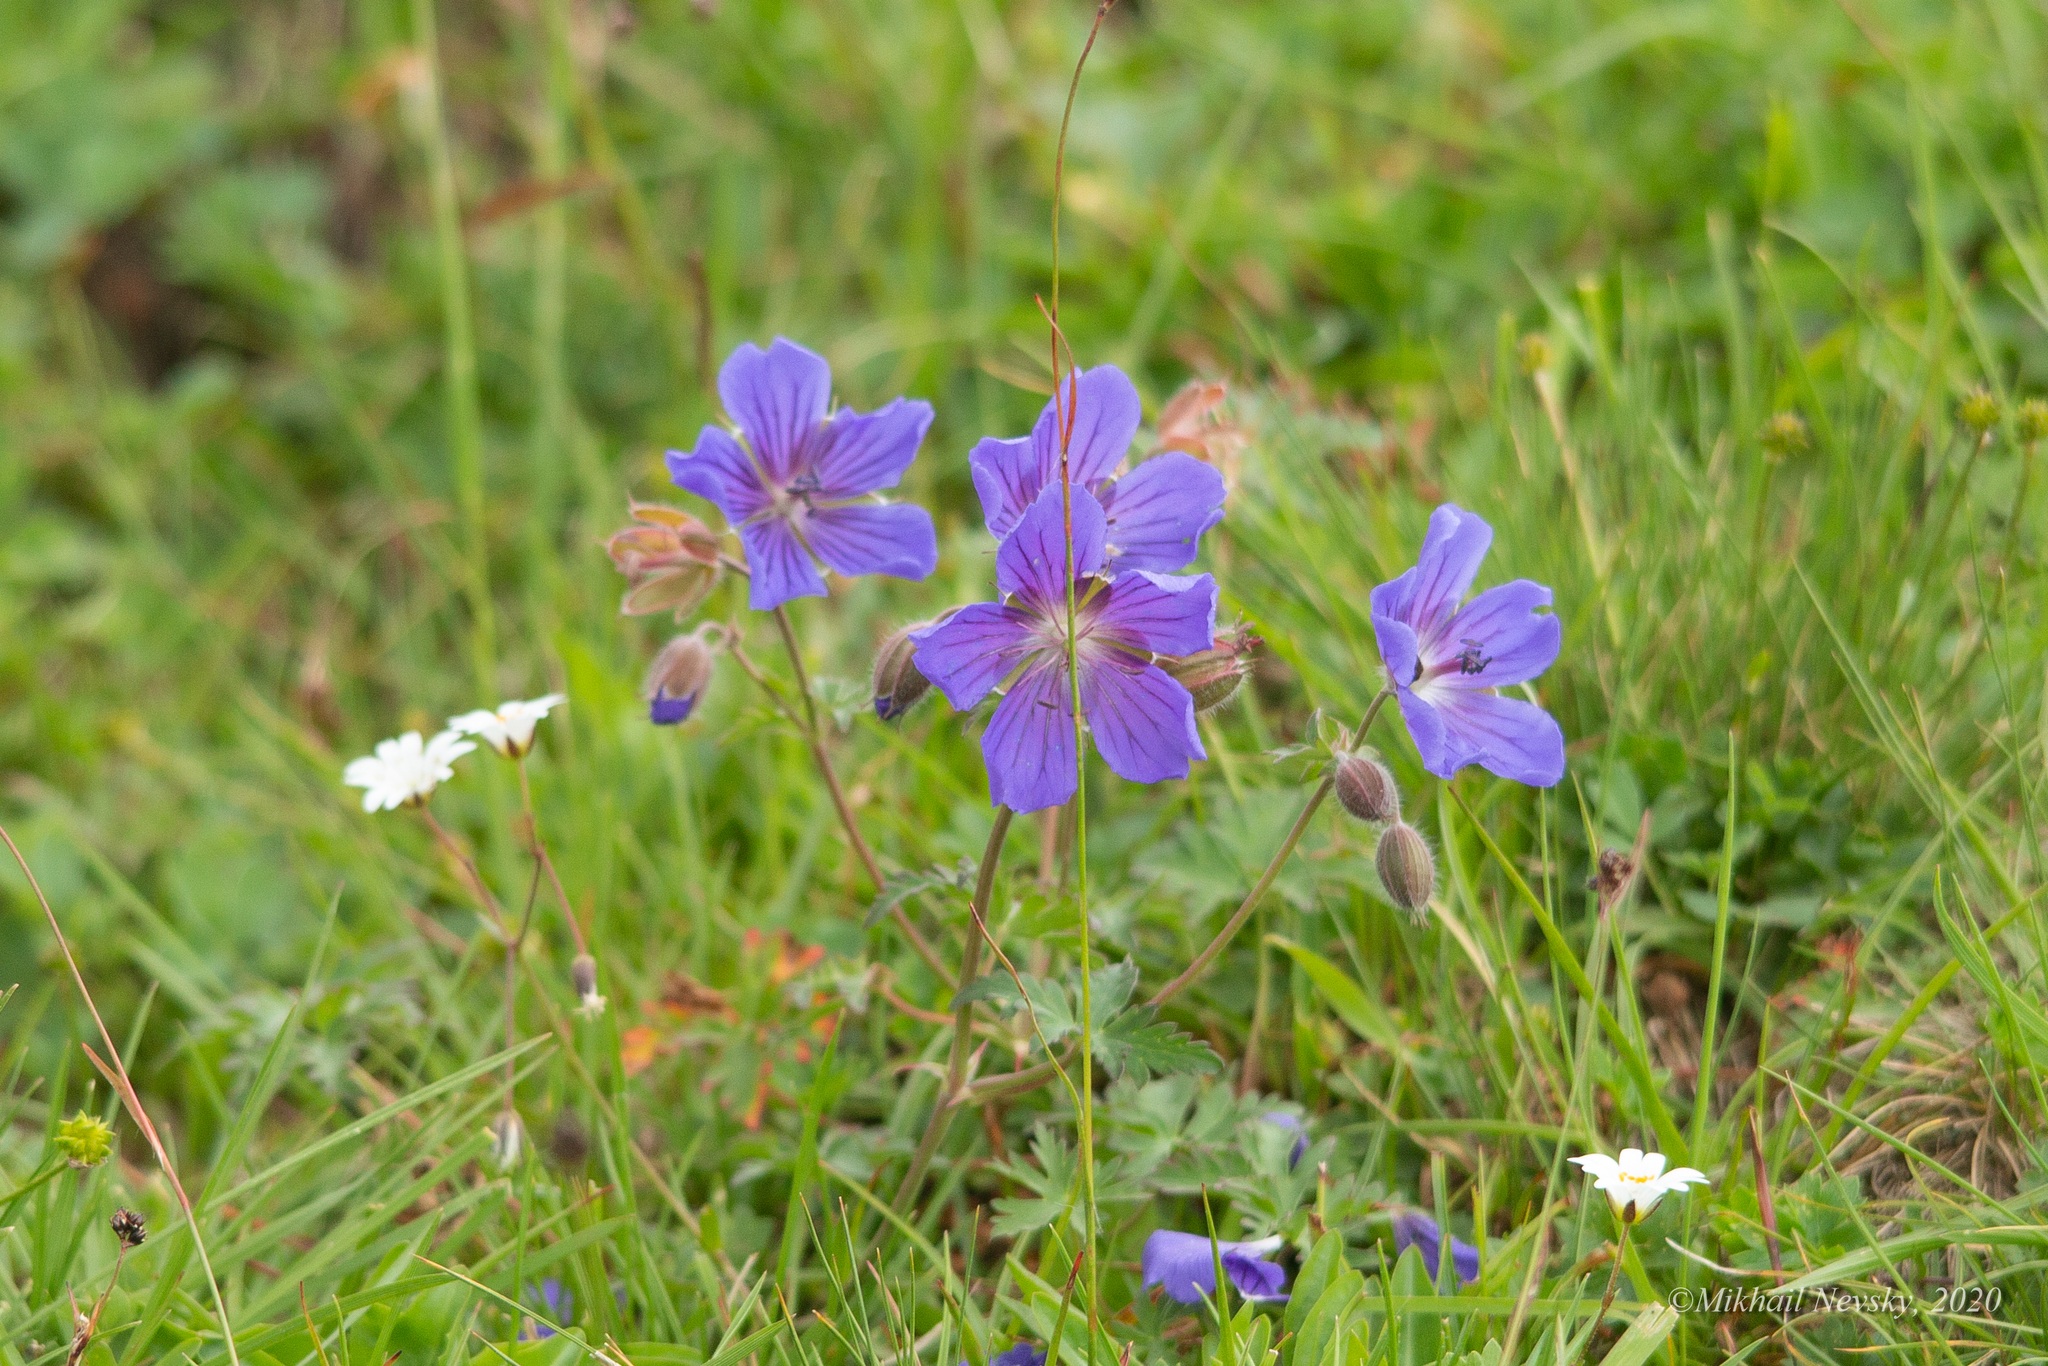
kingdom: Plantae
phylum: Tracheophyta
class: Magnoliopsida
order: Geraniales
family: Geraniaceae
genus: Geranium
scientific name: Geranium gymnocaulon
